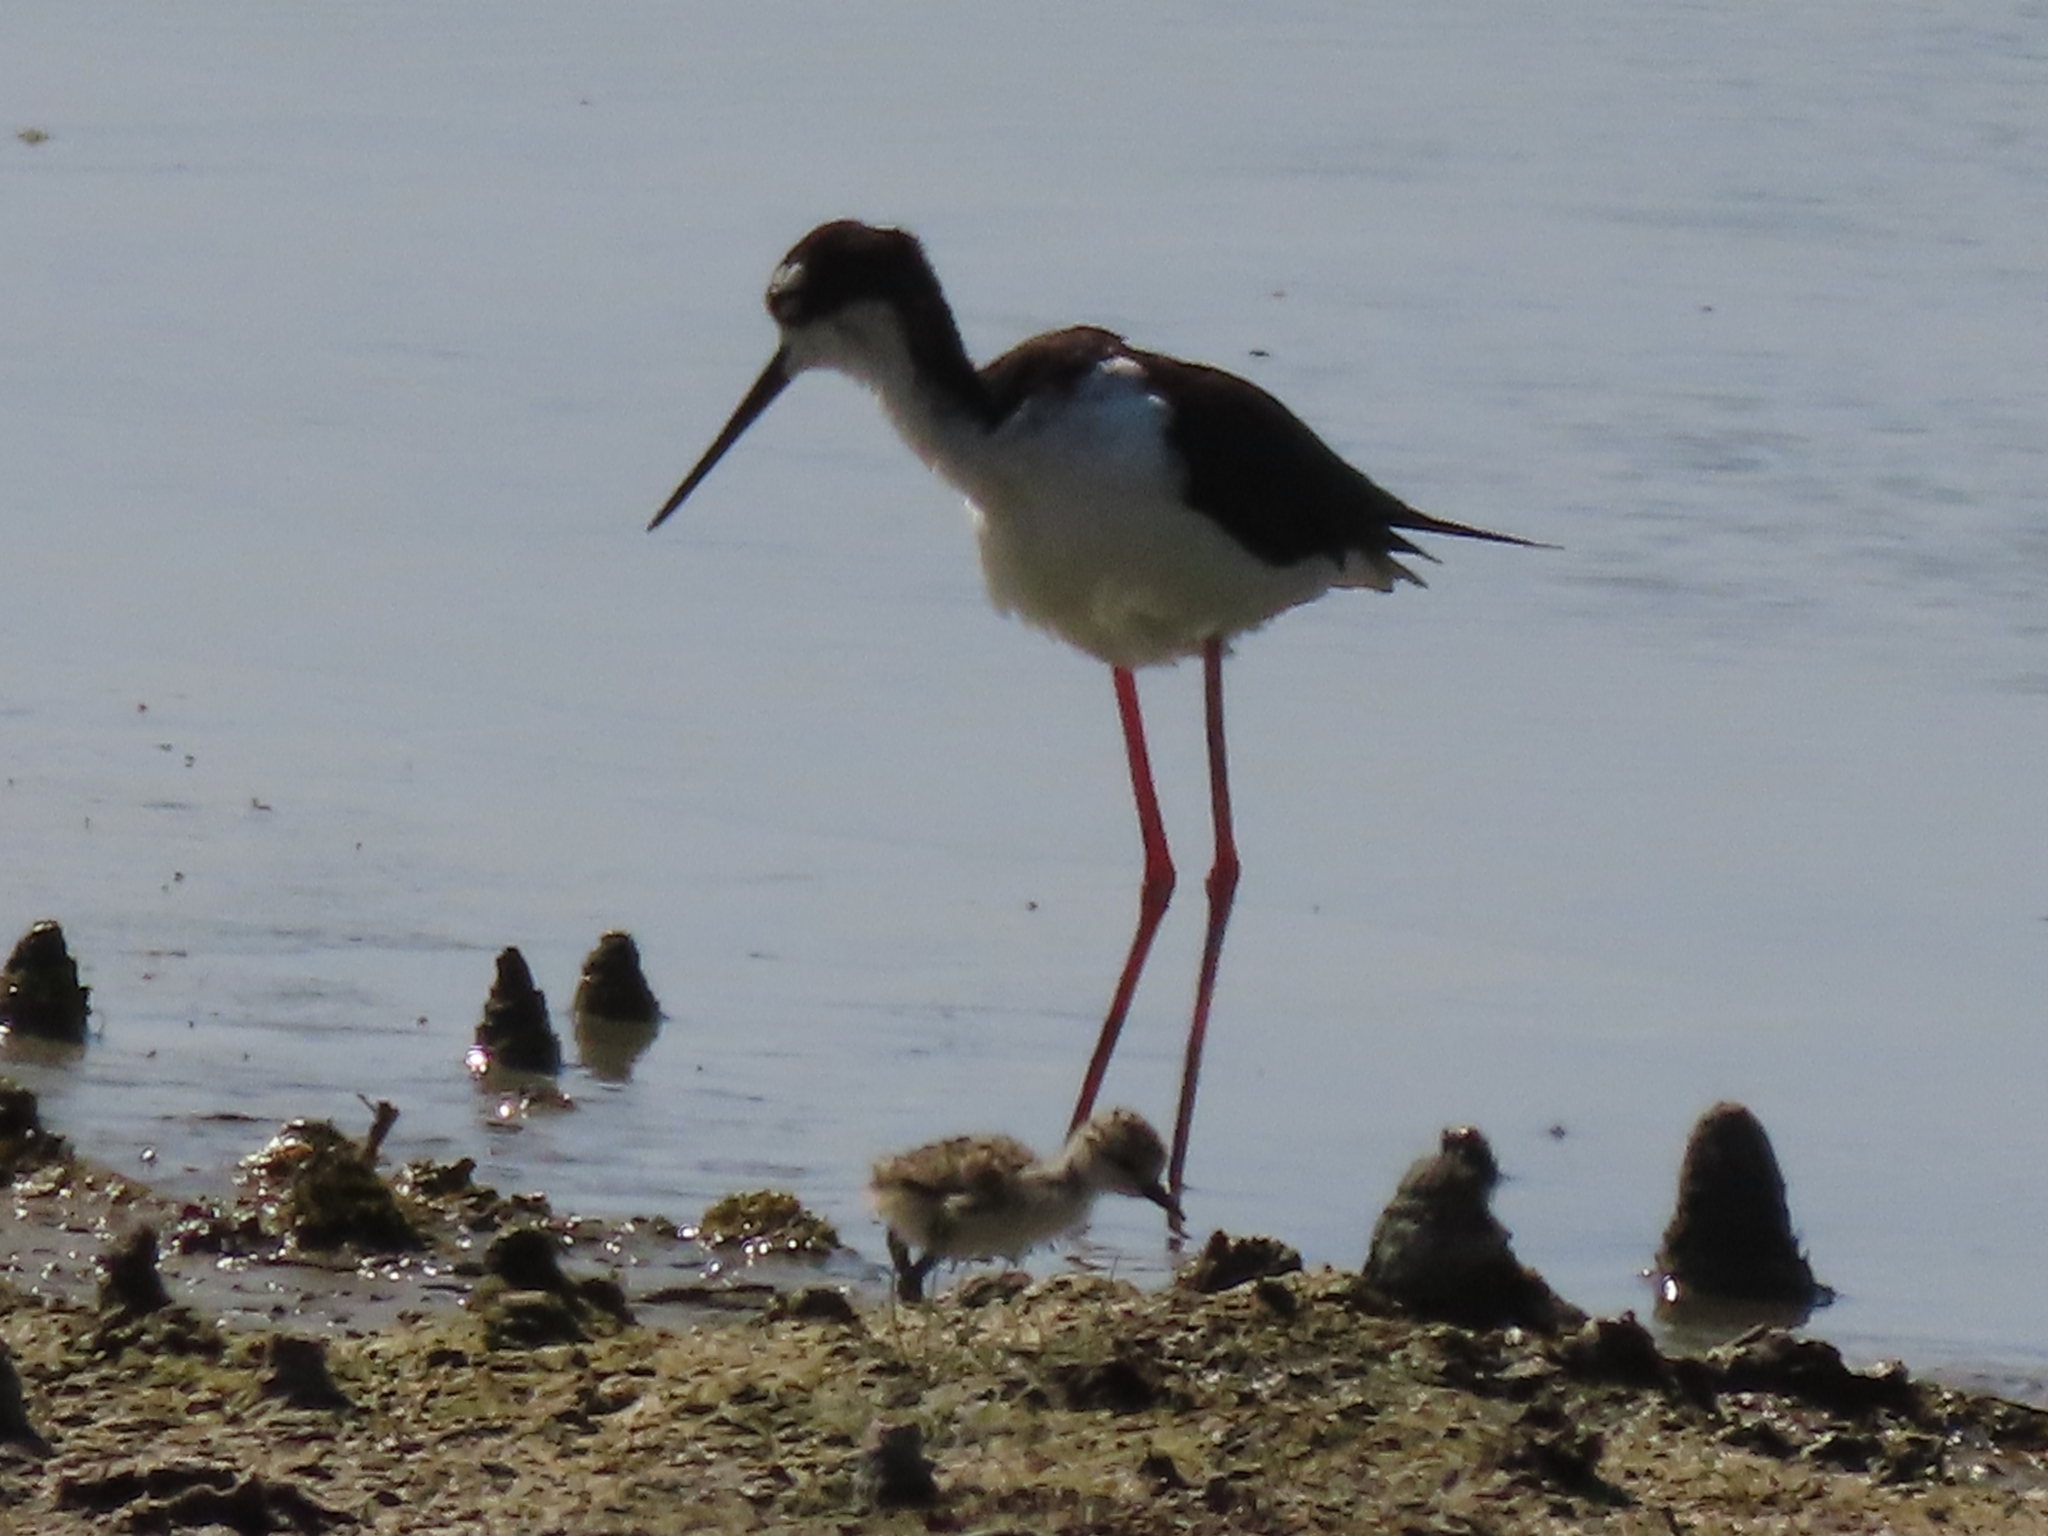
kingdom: Animalia
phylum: Chordata
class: Aves
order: Charadriiformes
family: Recurvirostridae
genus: Himantopus
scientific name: Himantopus mexicanus
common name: Black-necked stilt
